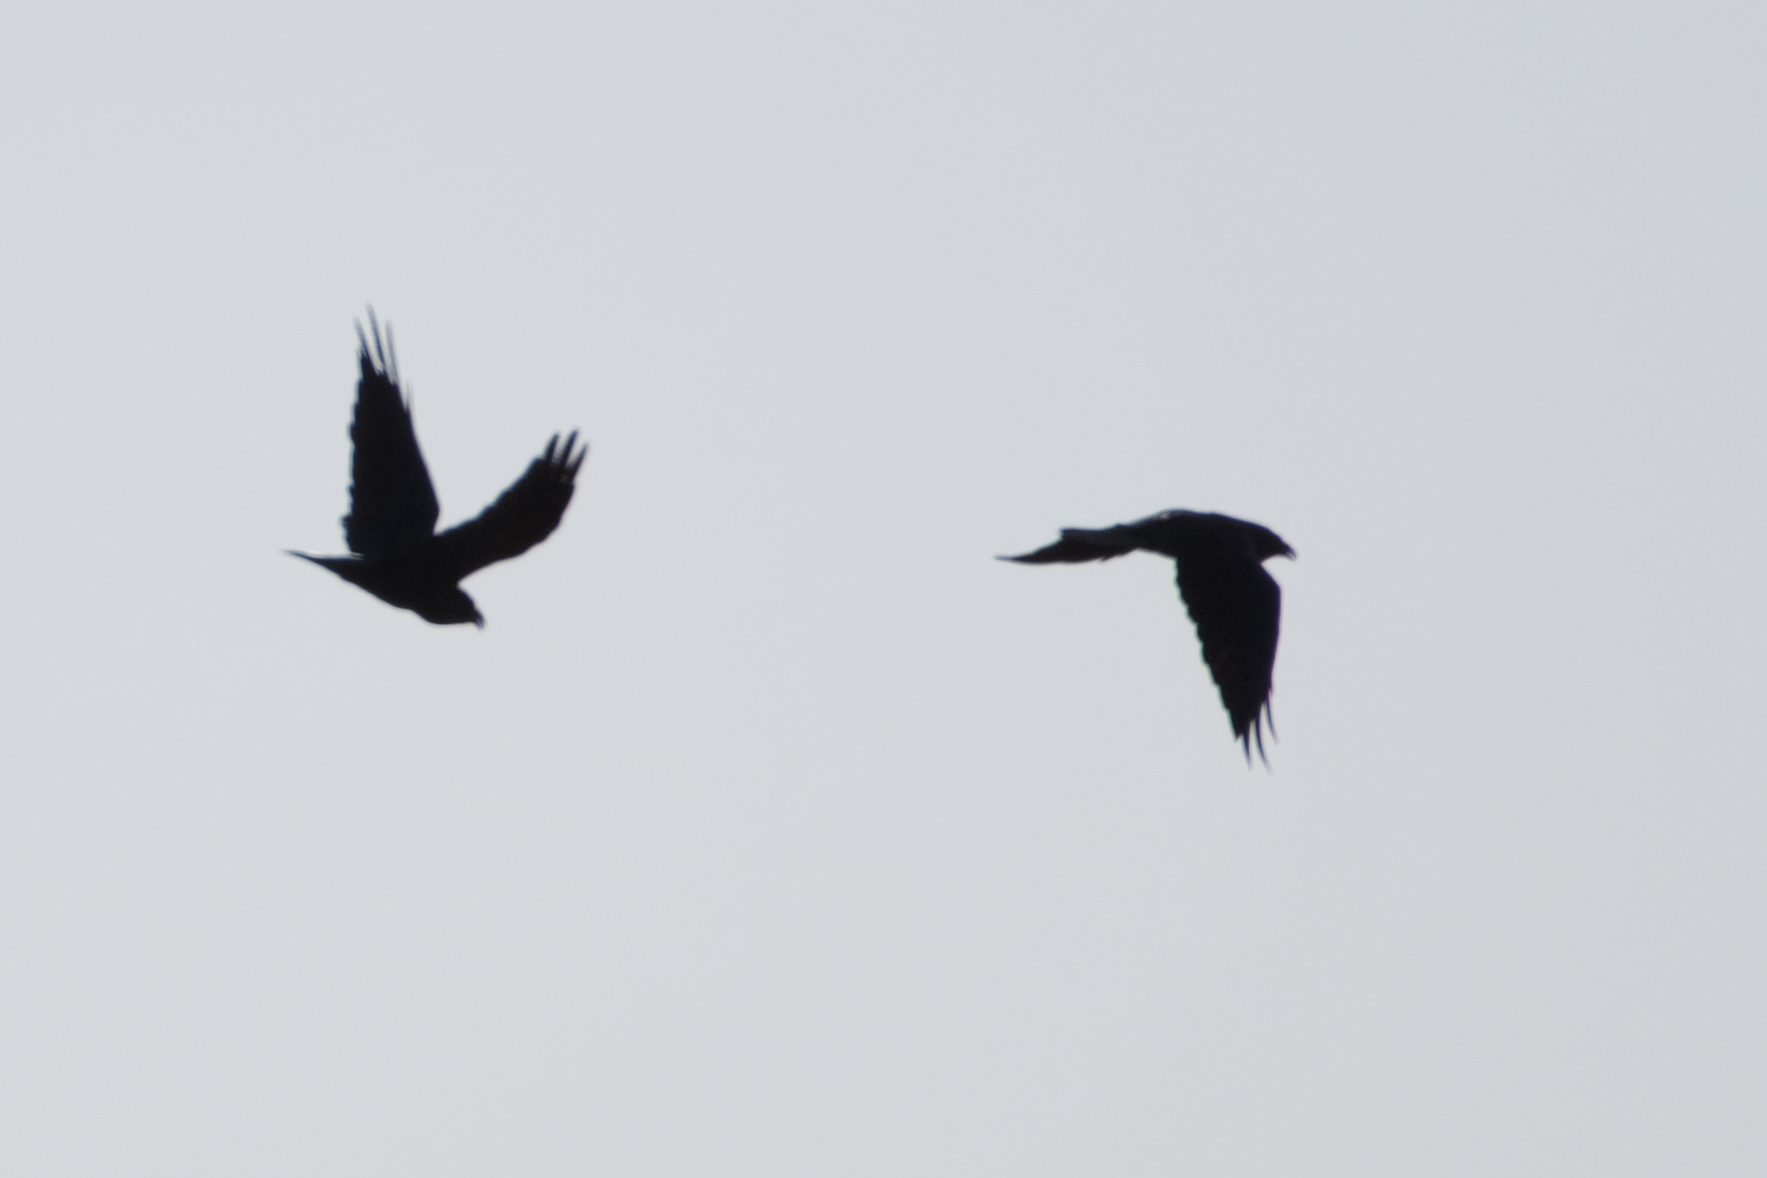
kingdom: Animalia
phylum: Chordata
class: Aves
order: Passeriformes
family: Corvidae
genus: Corvus
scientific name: Corvus corax
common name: Common raven
